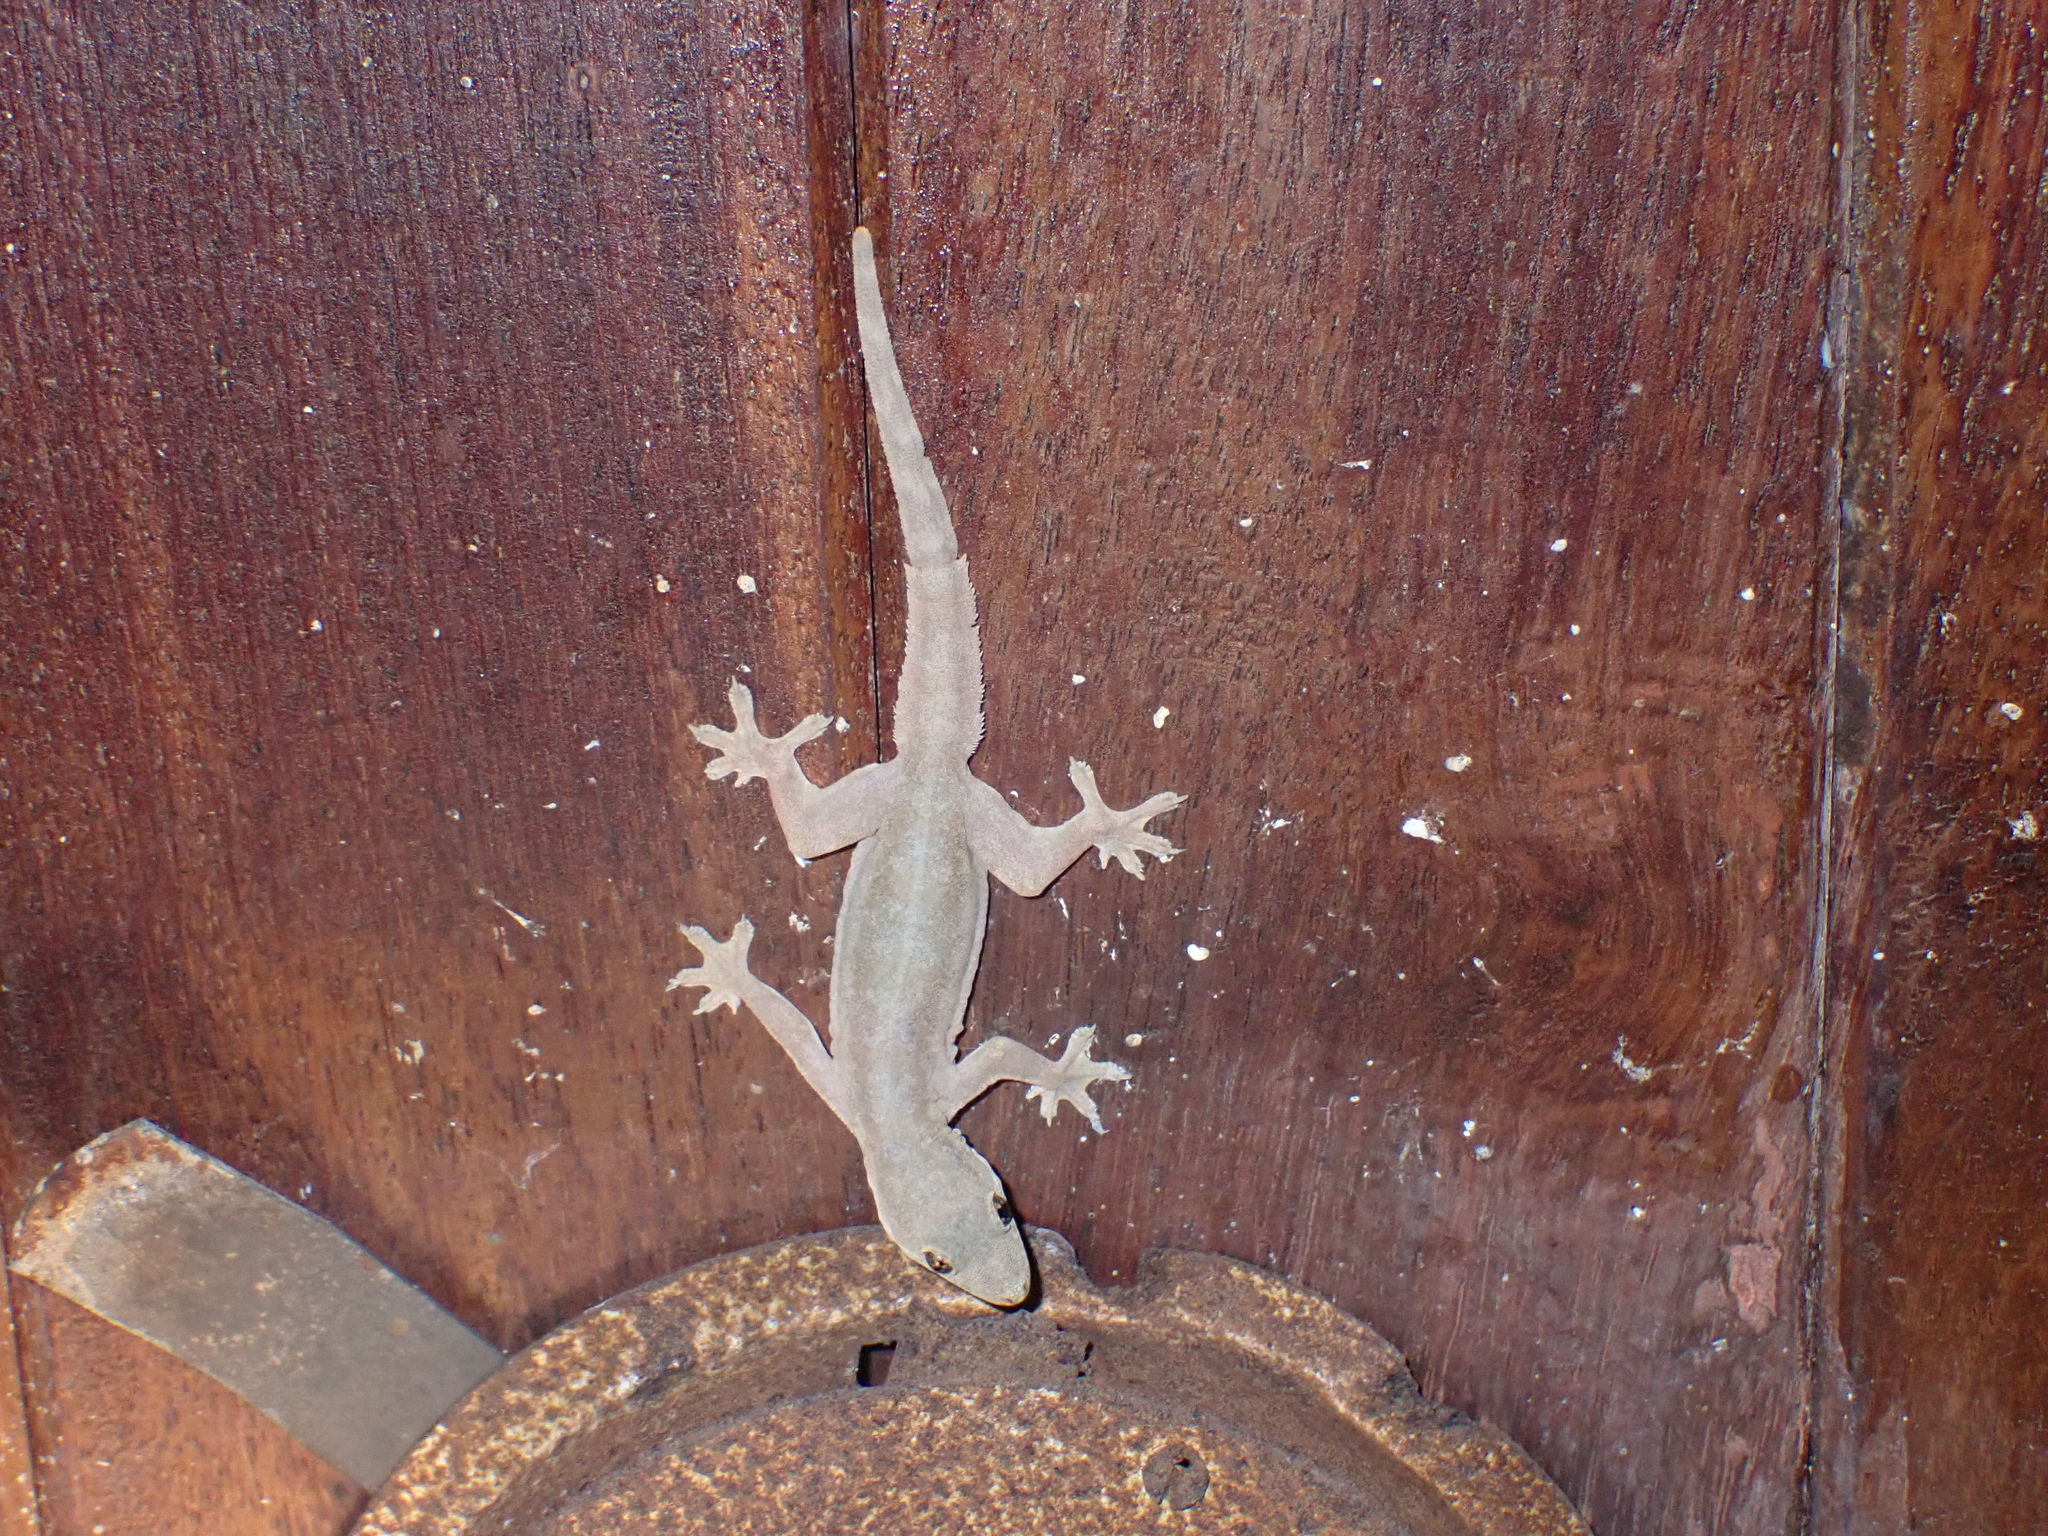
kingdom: Animalia
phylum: Chordata
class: Squamata
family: Gekkonidae
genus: Hemidactylus
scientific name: Hemidactylus platyurus
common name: Flat-tailed house gecko
